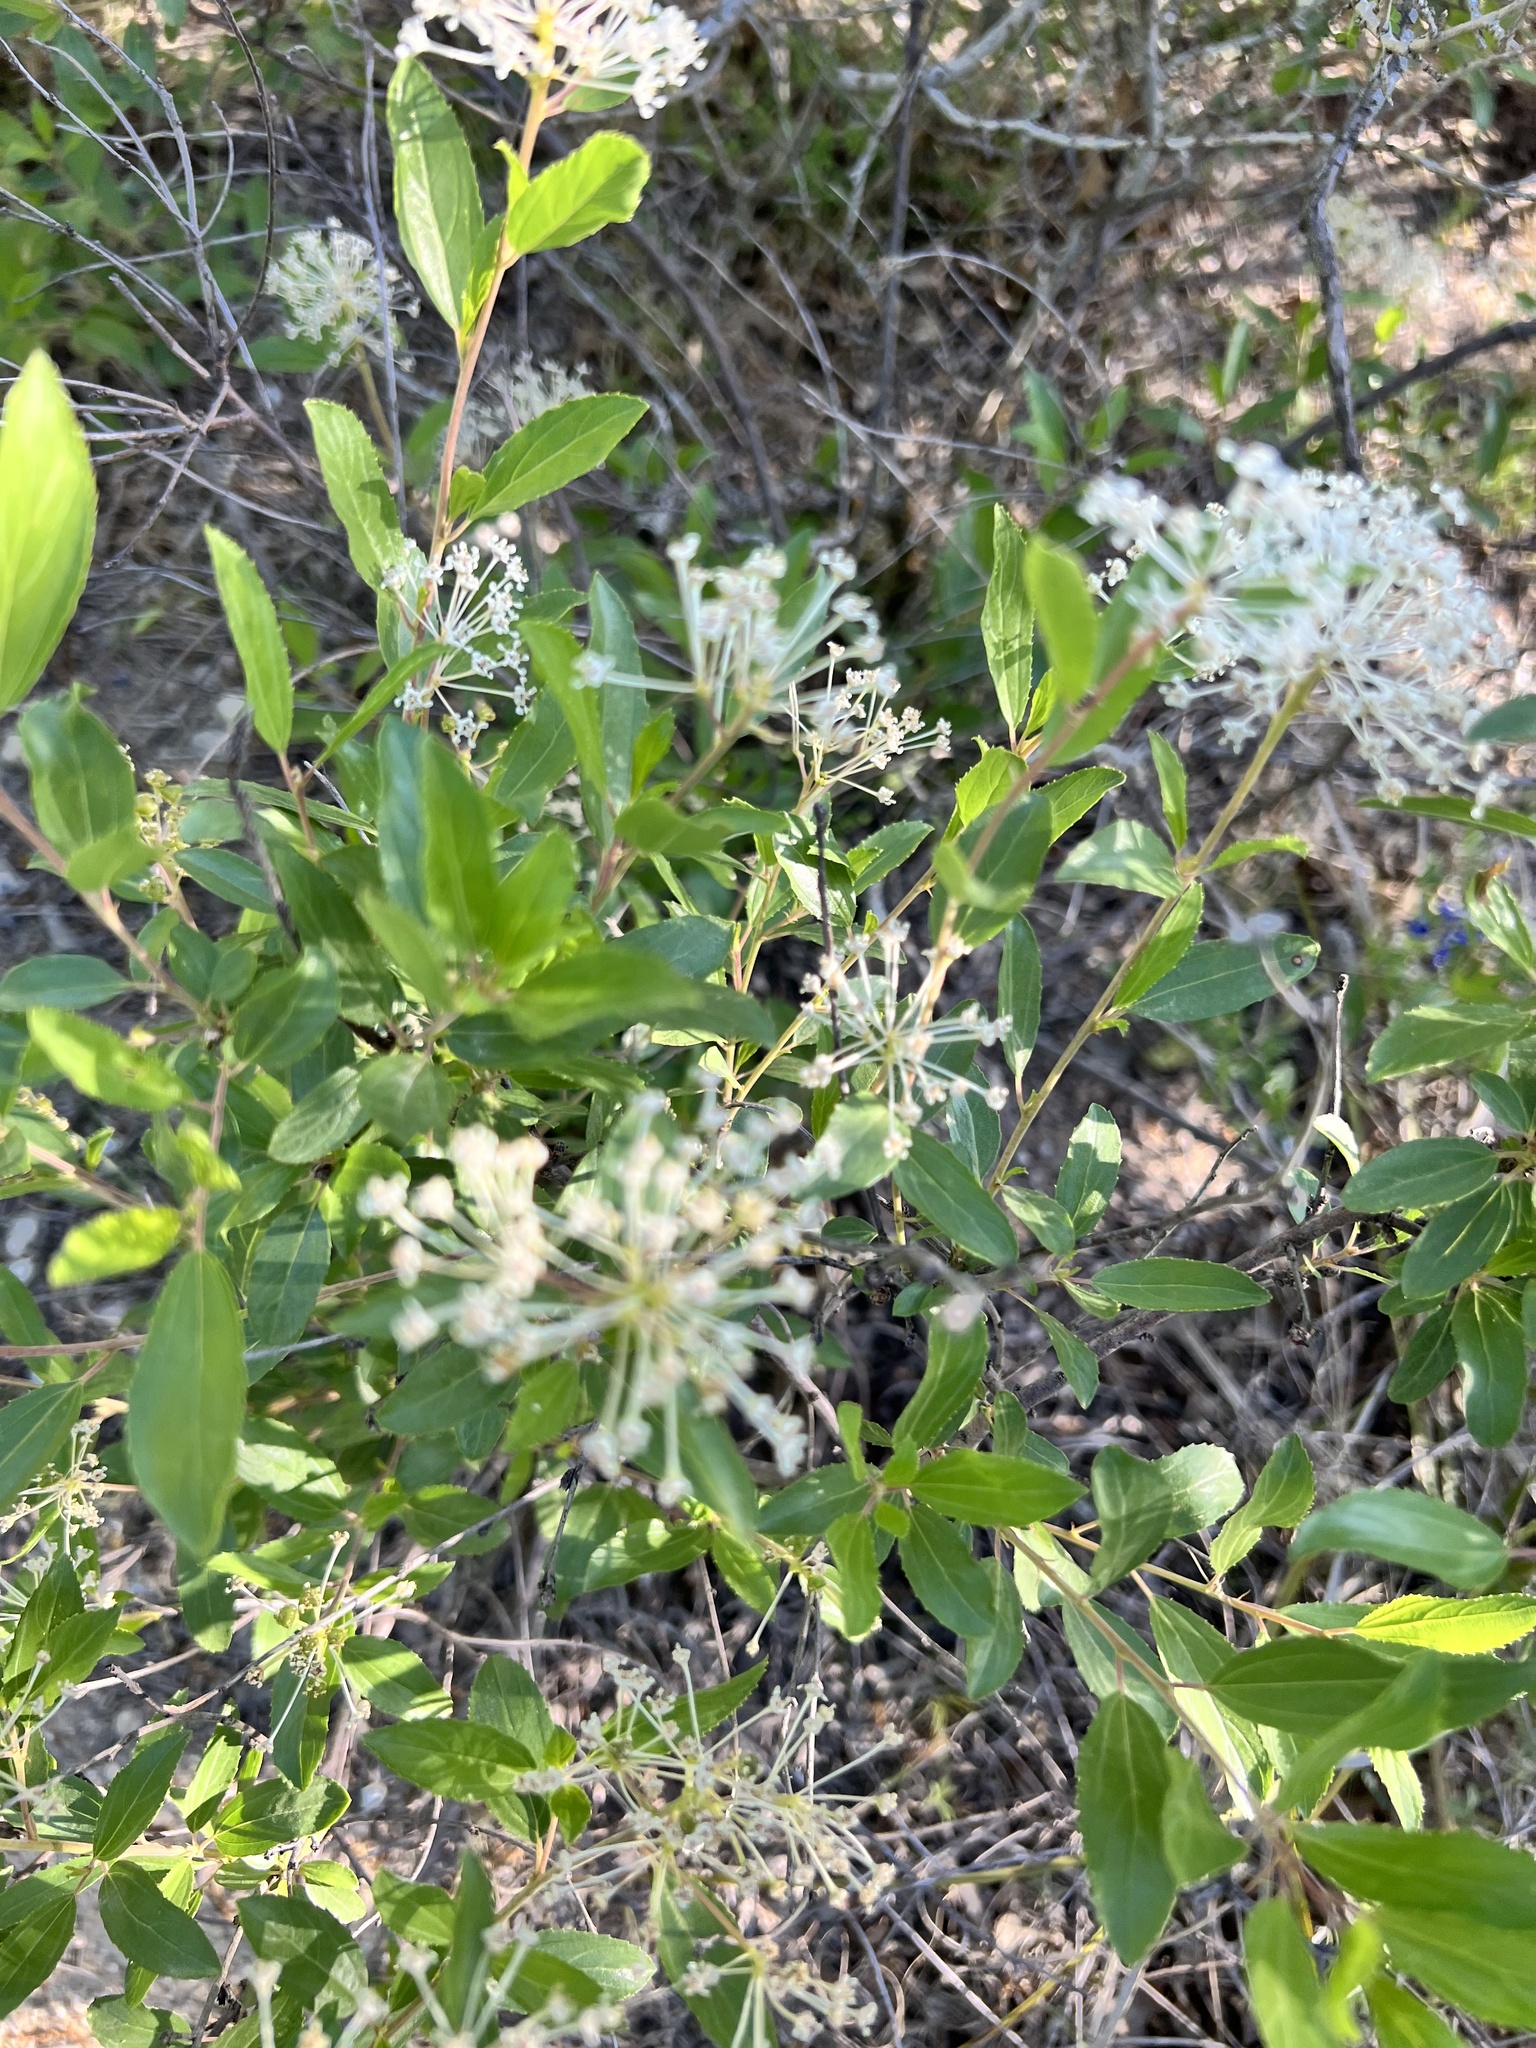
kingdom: Plantae
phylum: Tracheophyta
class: Magnoliopsida
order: Rosales
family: Rhamnaceae
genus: Ceanothus
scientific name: Ceanothus herbaceus
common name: Inland ceanothus
